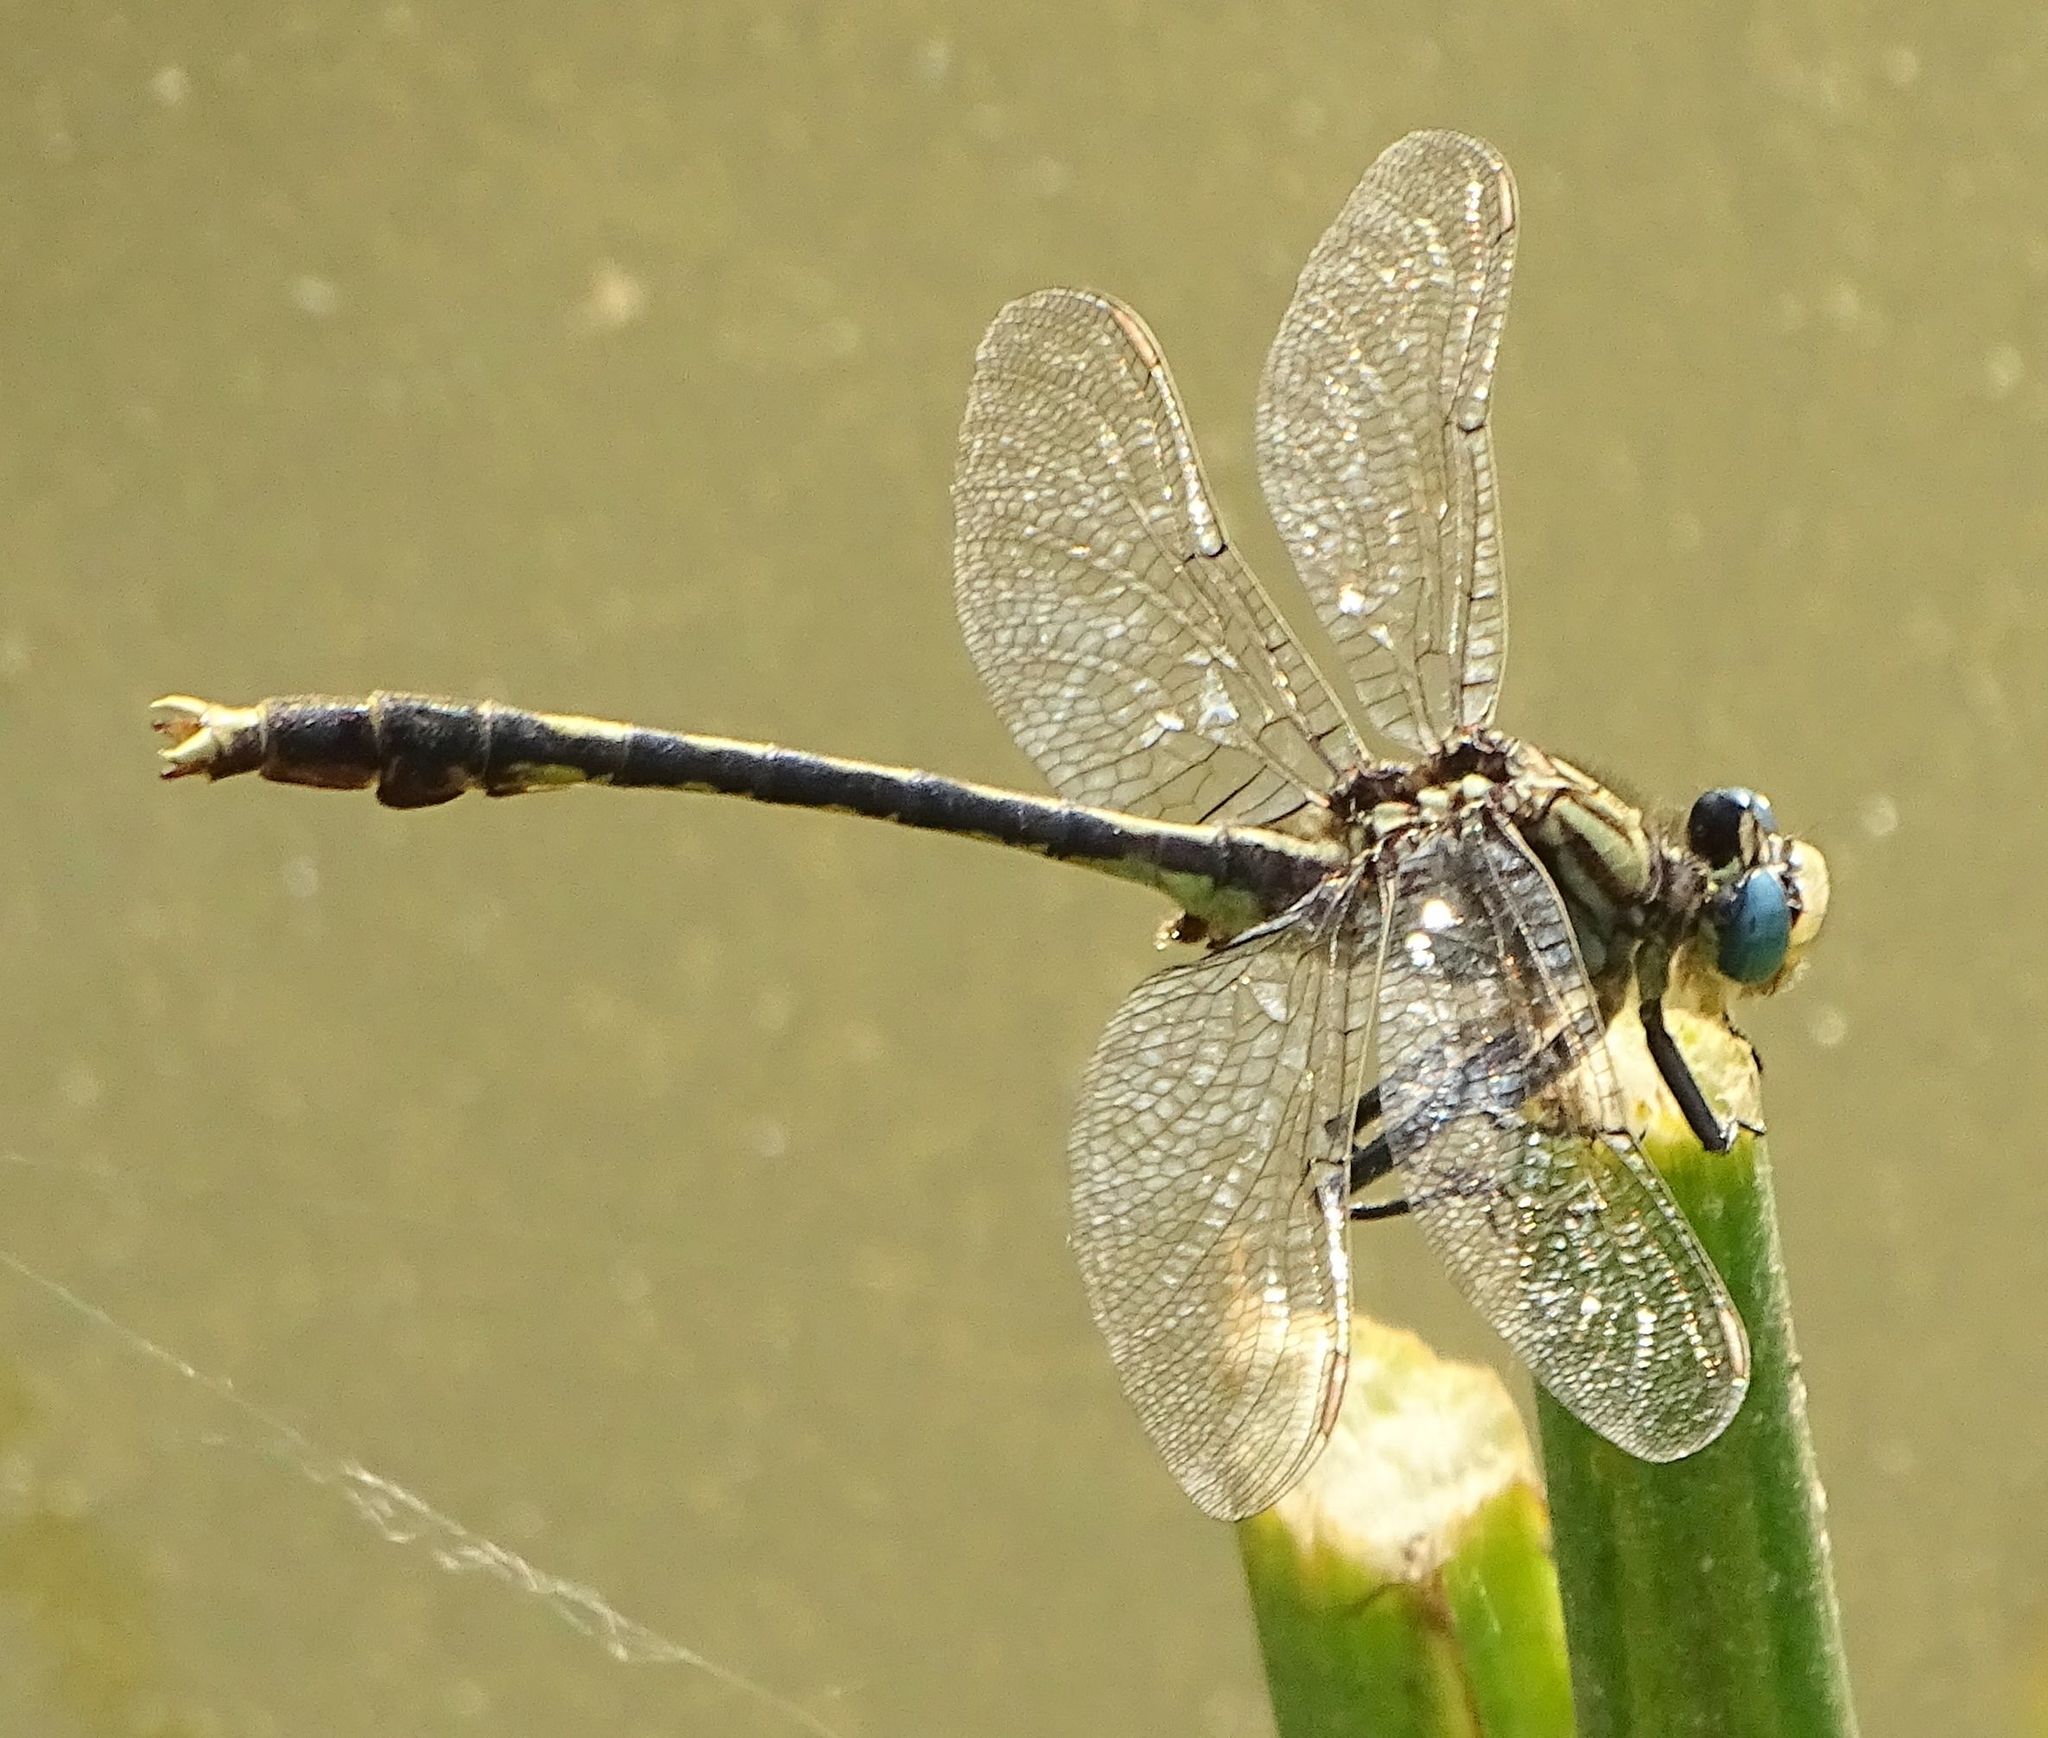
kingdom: Animalia
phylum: Arthropoda
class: Insecta
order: Odonata
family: Gomphidae
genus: Arigomphus
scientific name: Arigomphus villosipes
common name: Unicorn clubtail
